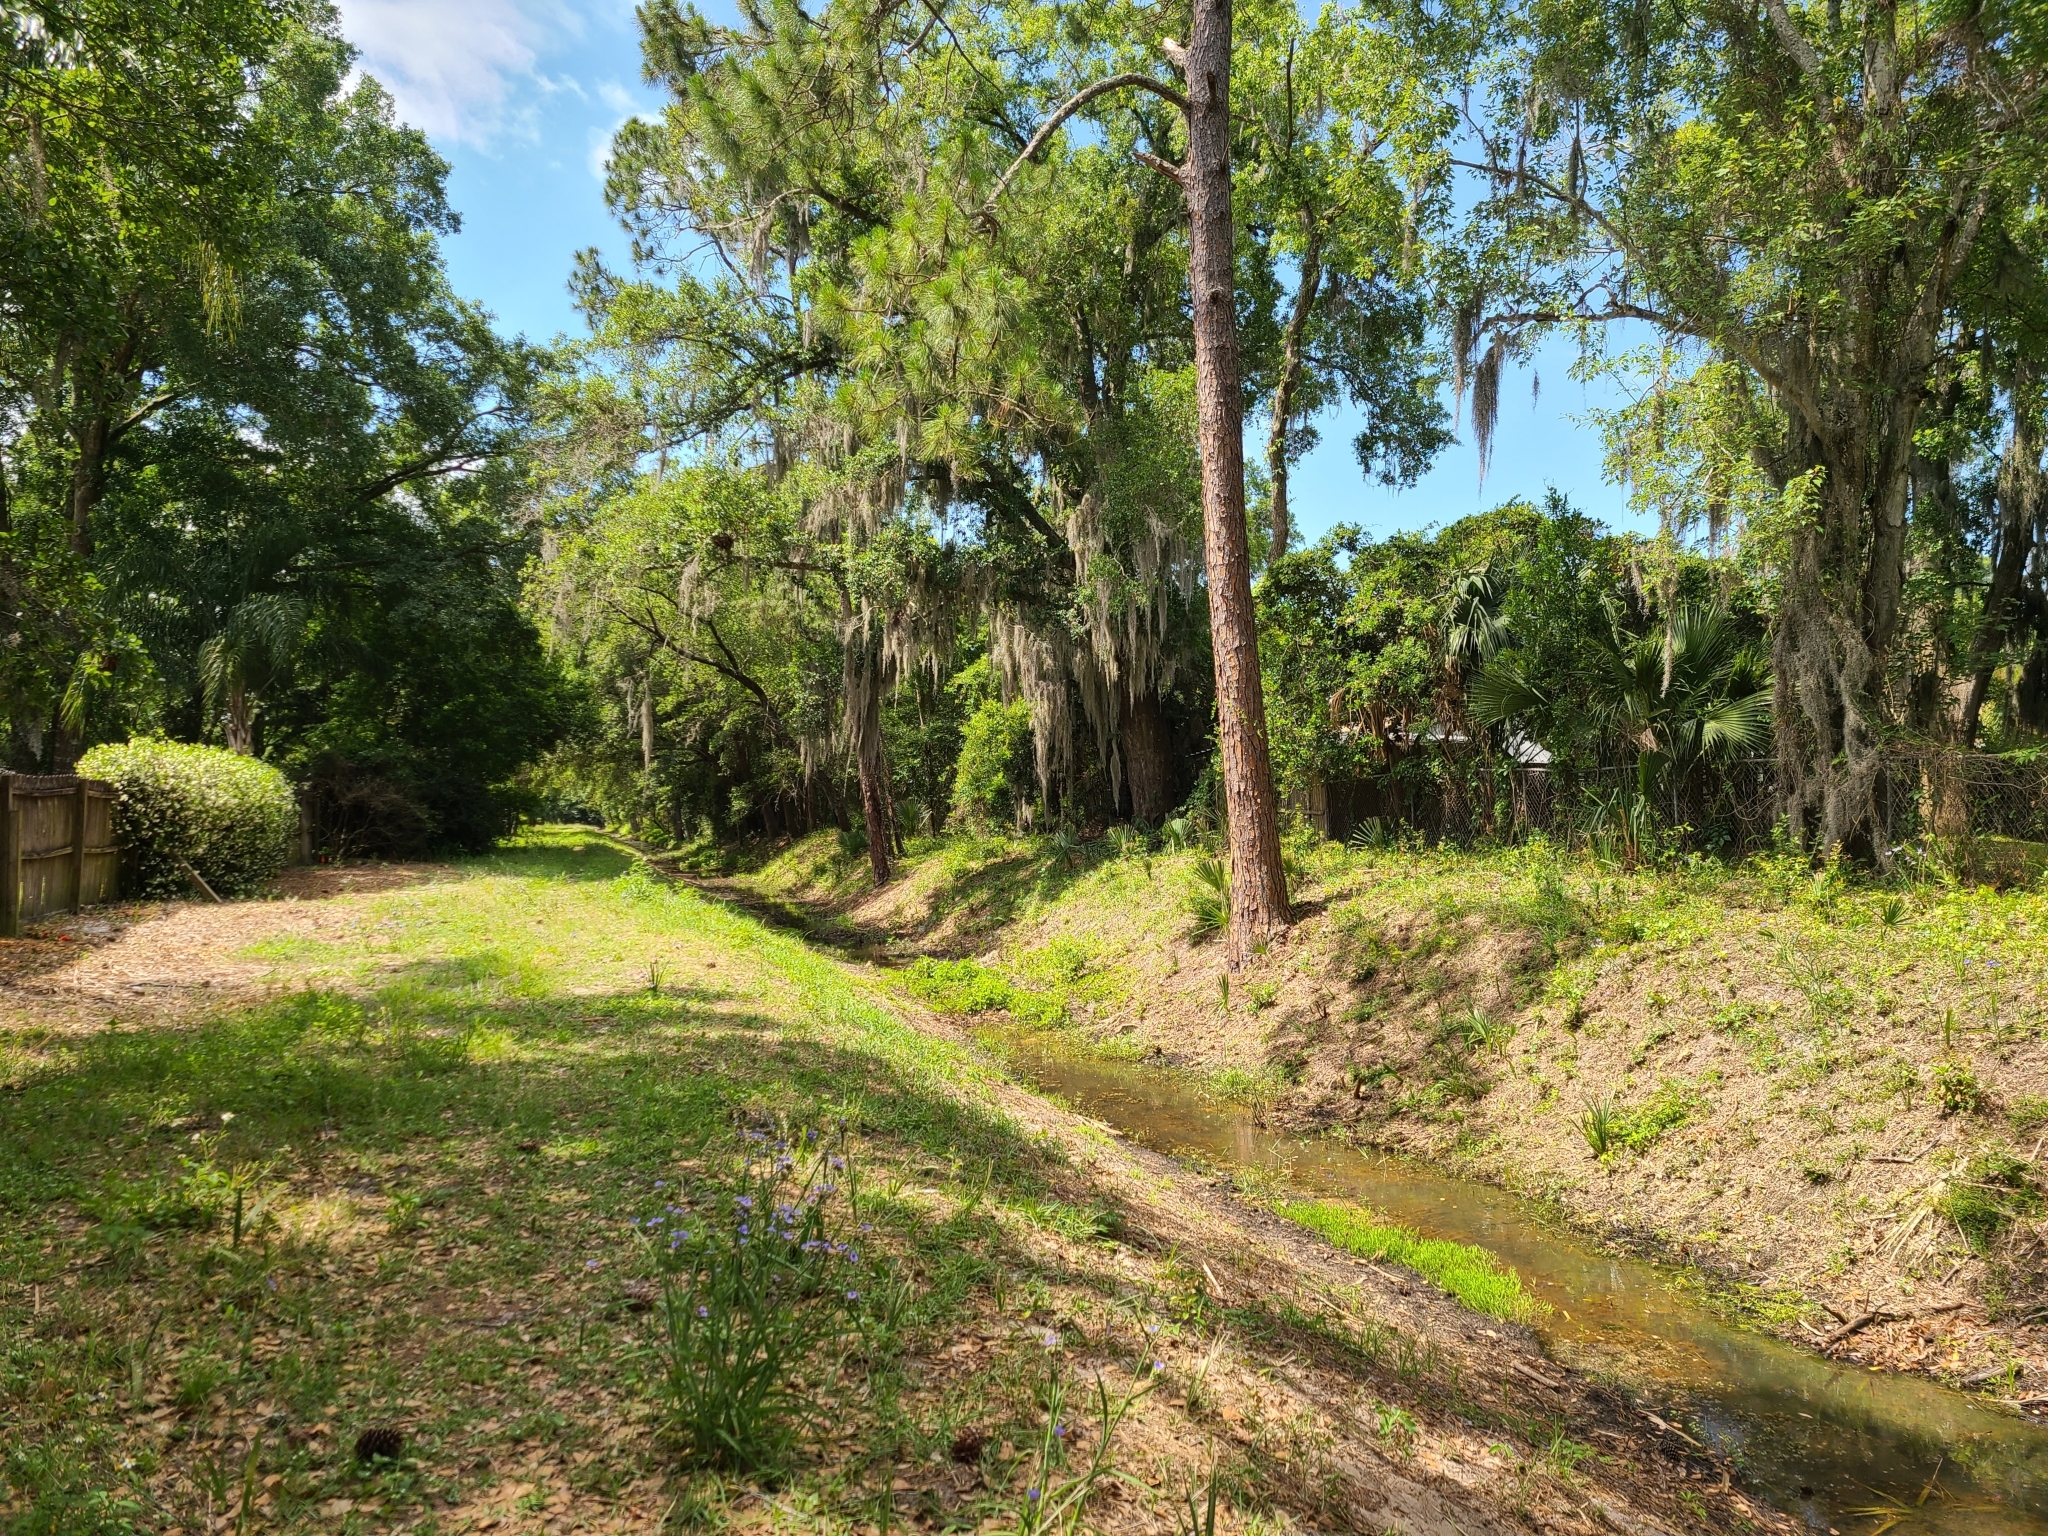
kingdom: Animalia
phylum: Chordata
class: Aves
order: Passeriformes
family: Troglodytidae
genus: Thryothorus
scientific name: Thryothorus ludovicianus
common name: Carolina wren
